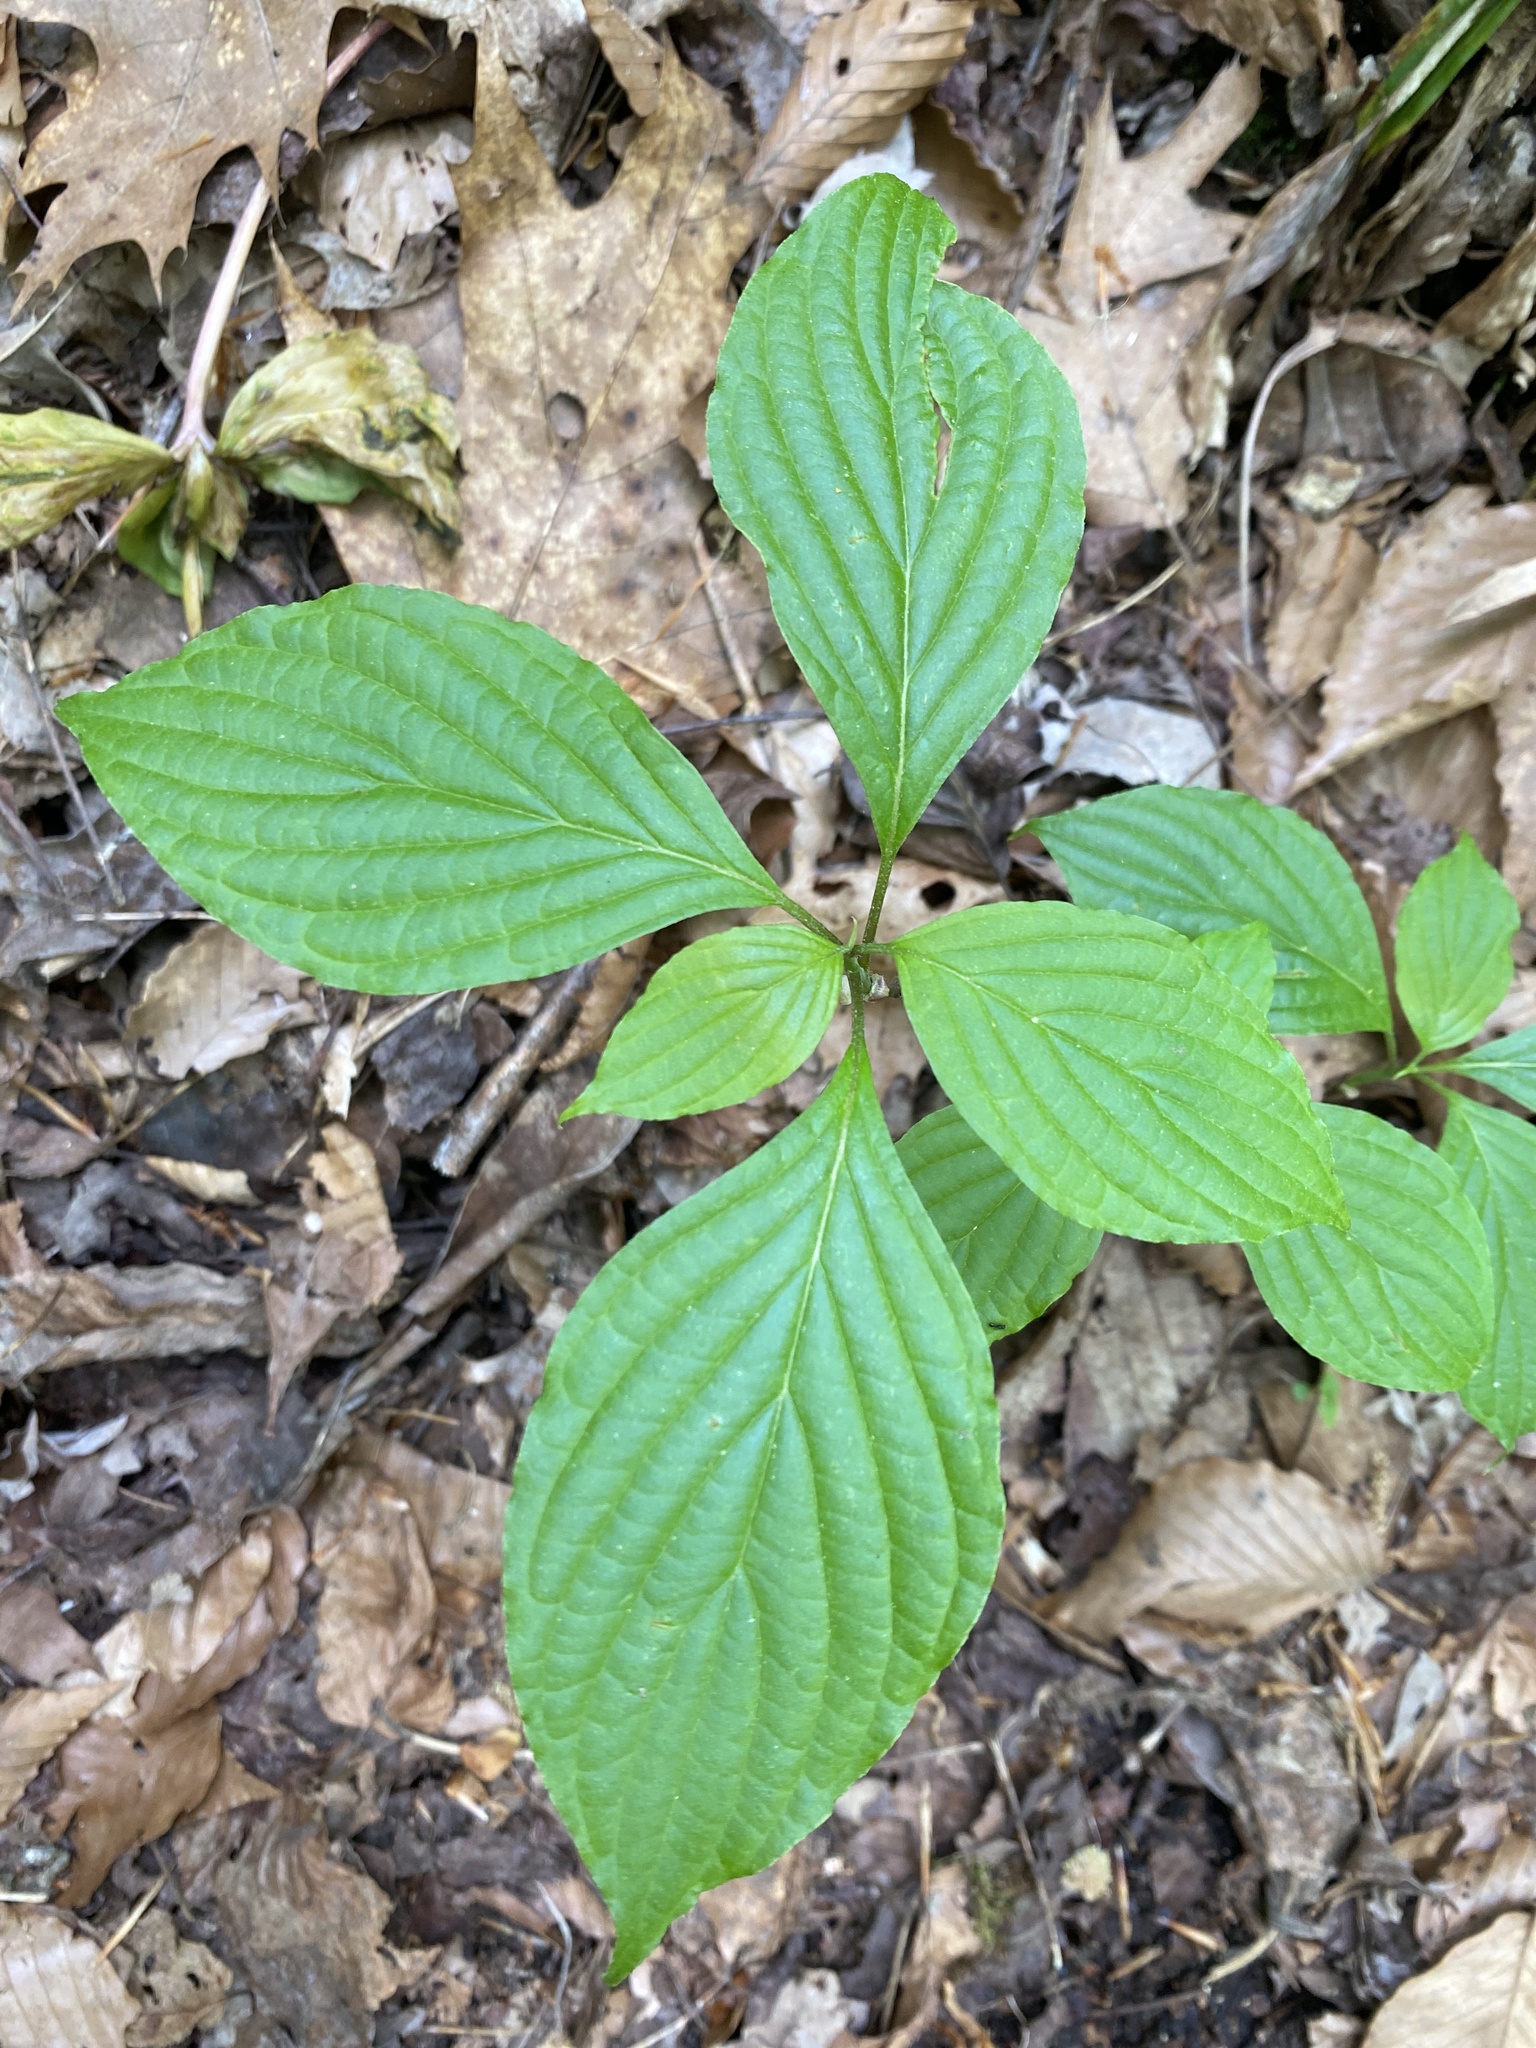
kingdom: Plantae
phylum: Tracheophyta
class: Magnoliopsida
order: Cornales
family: Cornaceae
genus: Cornus
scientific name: Cornus alternifolia
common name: Pagoda dogwood
